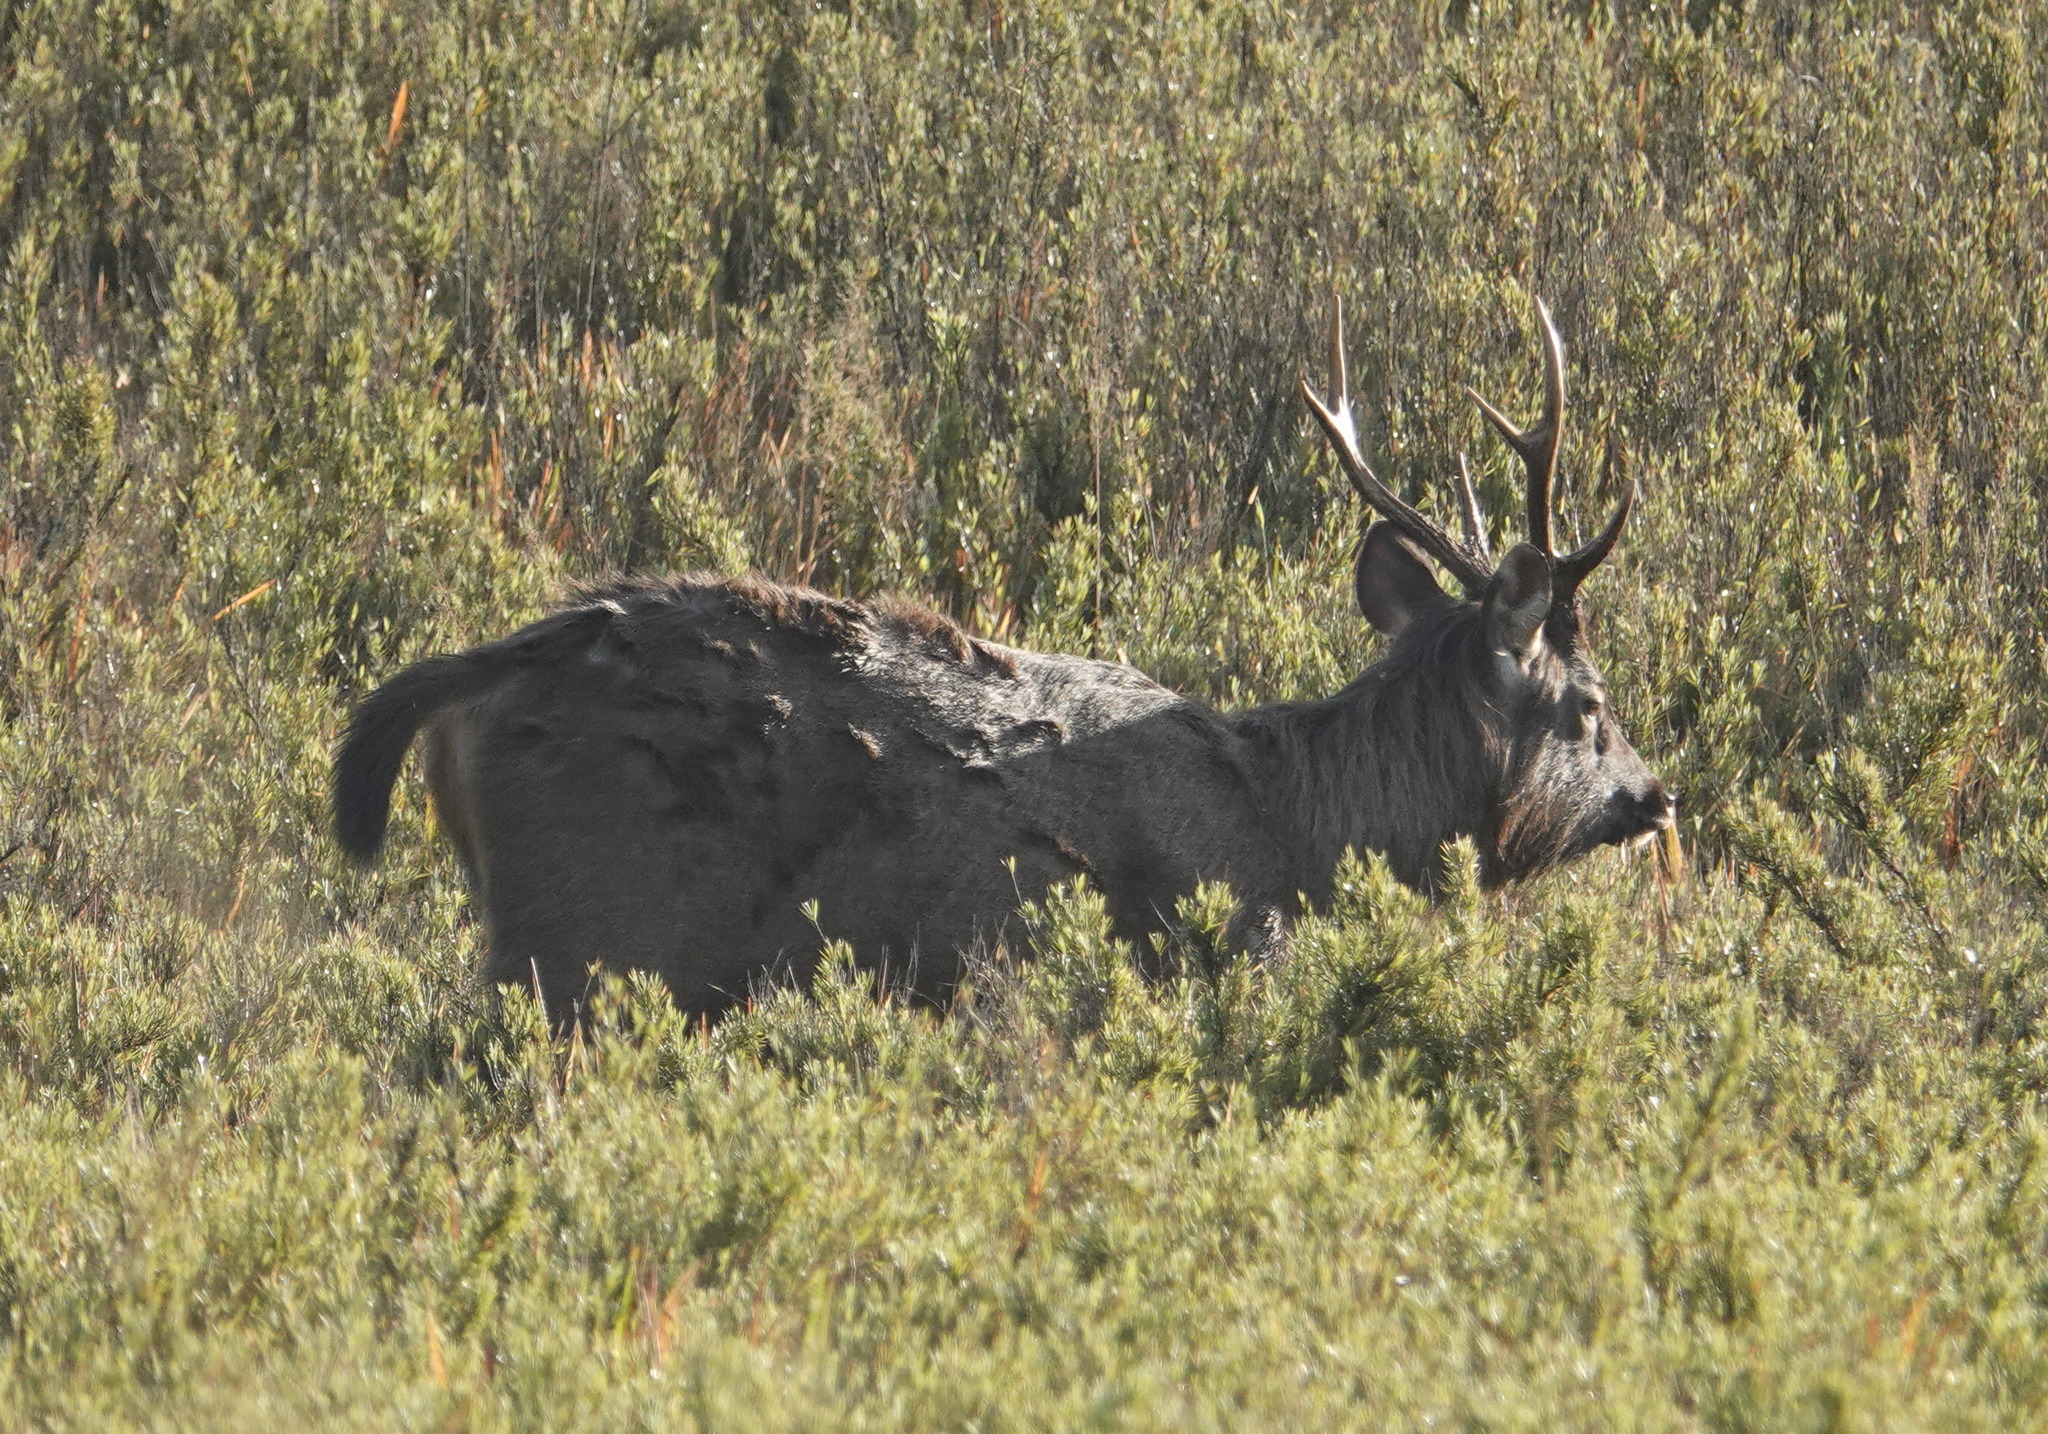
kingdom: Animalia
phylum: Chordata
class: Mammalia
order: Artiodactyla
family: Cervidae
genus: Rusa
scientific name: Rusa unicolor
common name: Sambar
